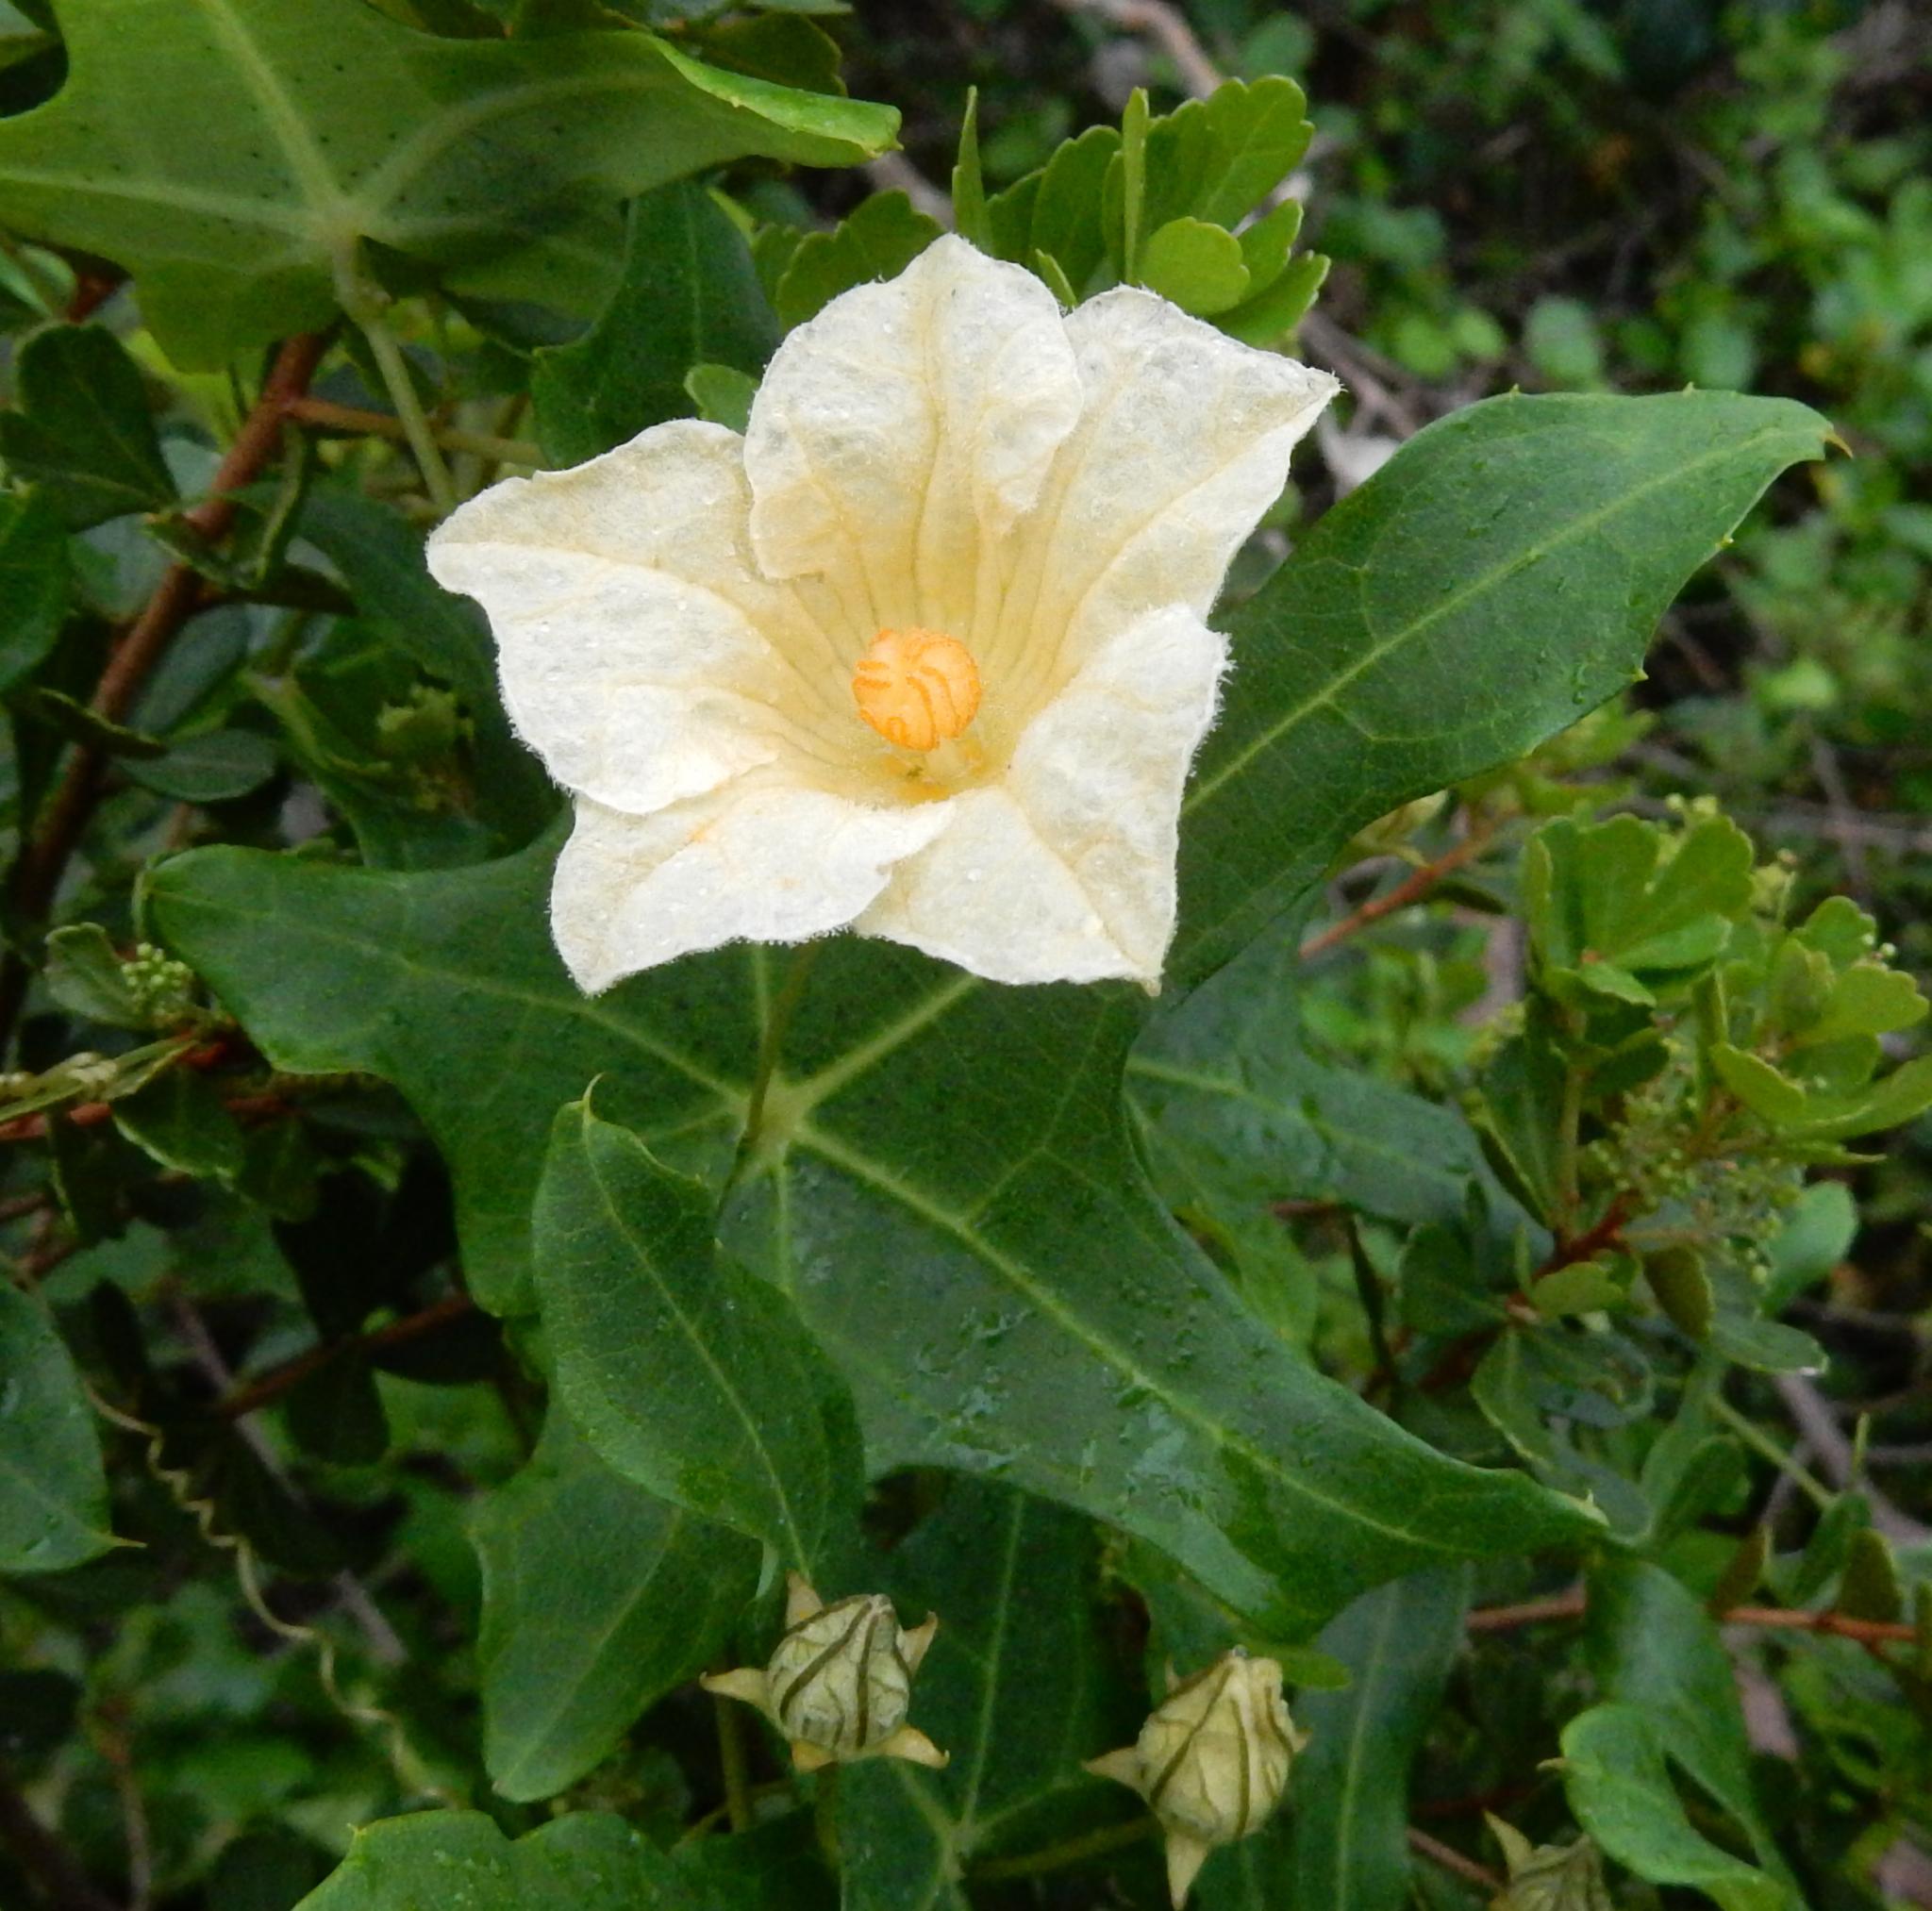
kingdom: Plantae
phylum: Tracheophyta
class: Magnoliopsida
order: Cucurbitales
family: Cucurbitaceae
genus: Coccinia
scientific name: Coccinia quinqueloba
